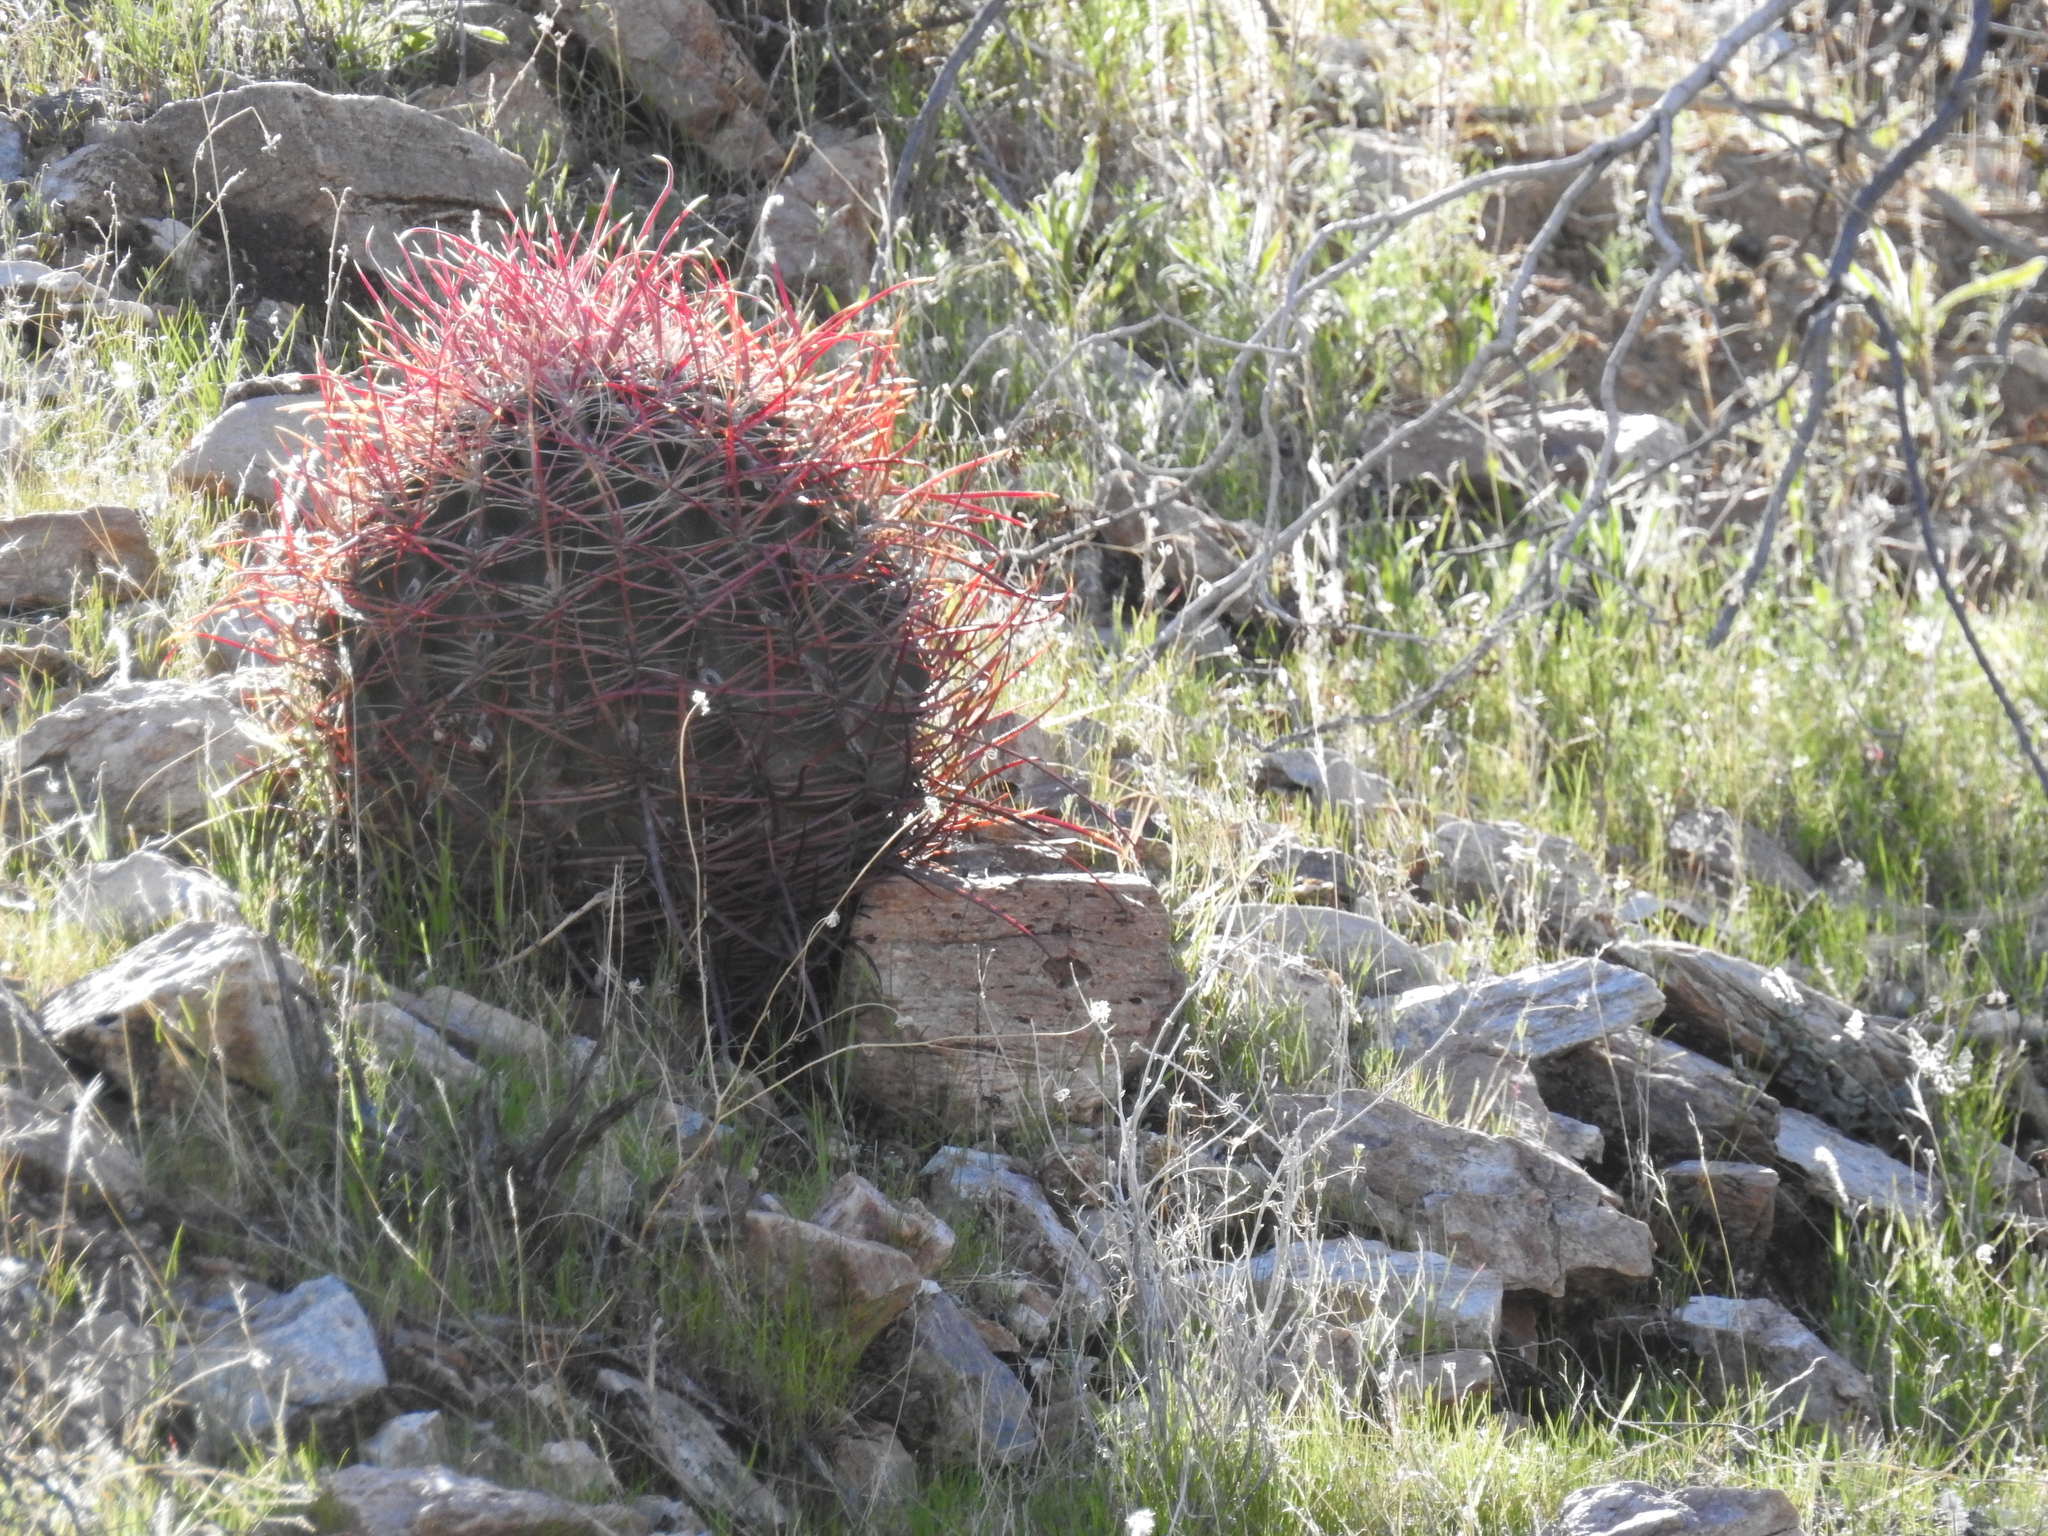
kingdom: Plantae
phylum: Tracheophyta
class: Magnoliopsida
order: Caryophyllales
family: Cactaceae
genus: Ferocactus
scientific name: Ferocactus cylindraceus
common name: California barrel cactus
